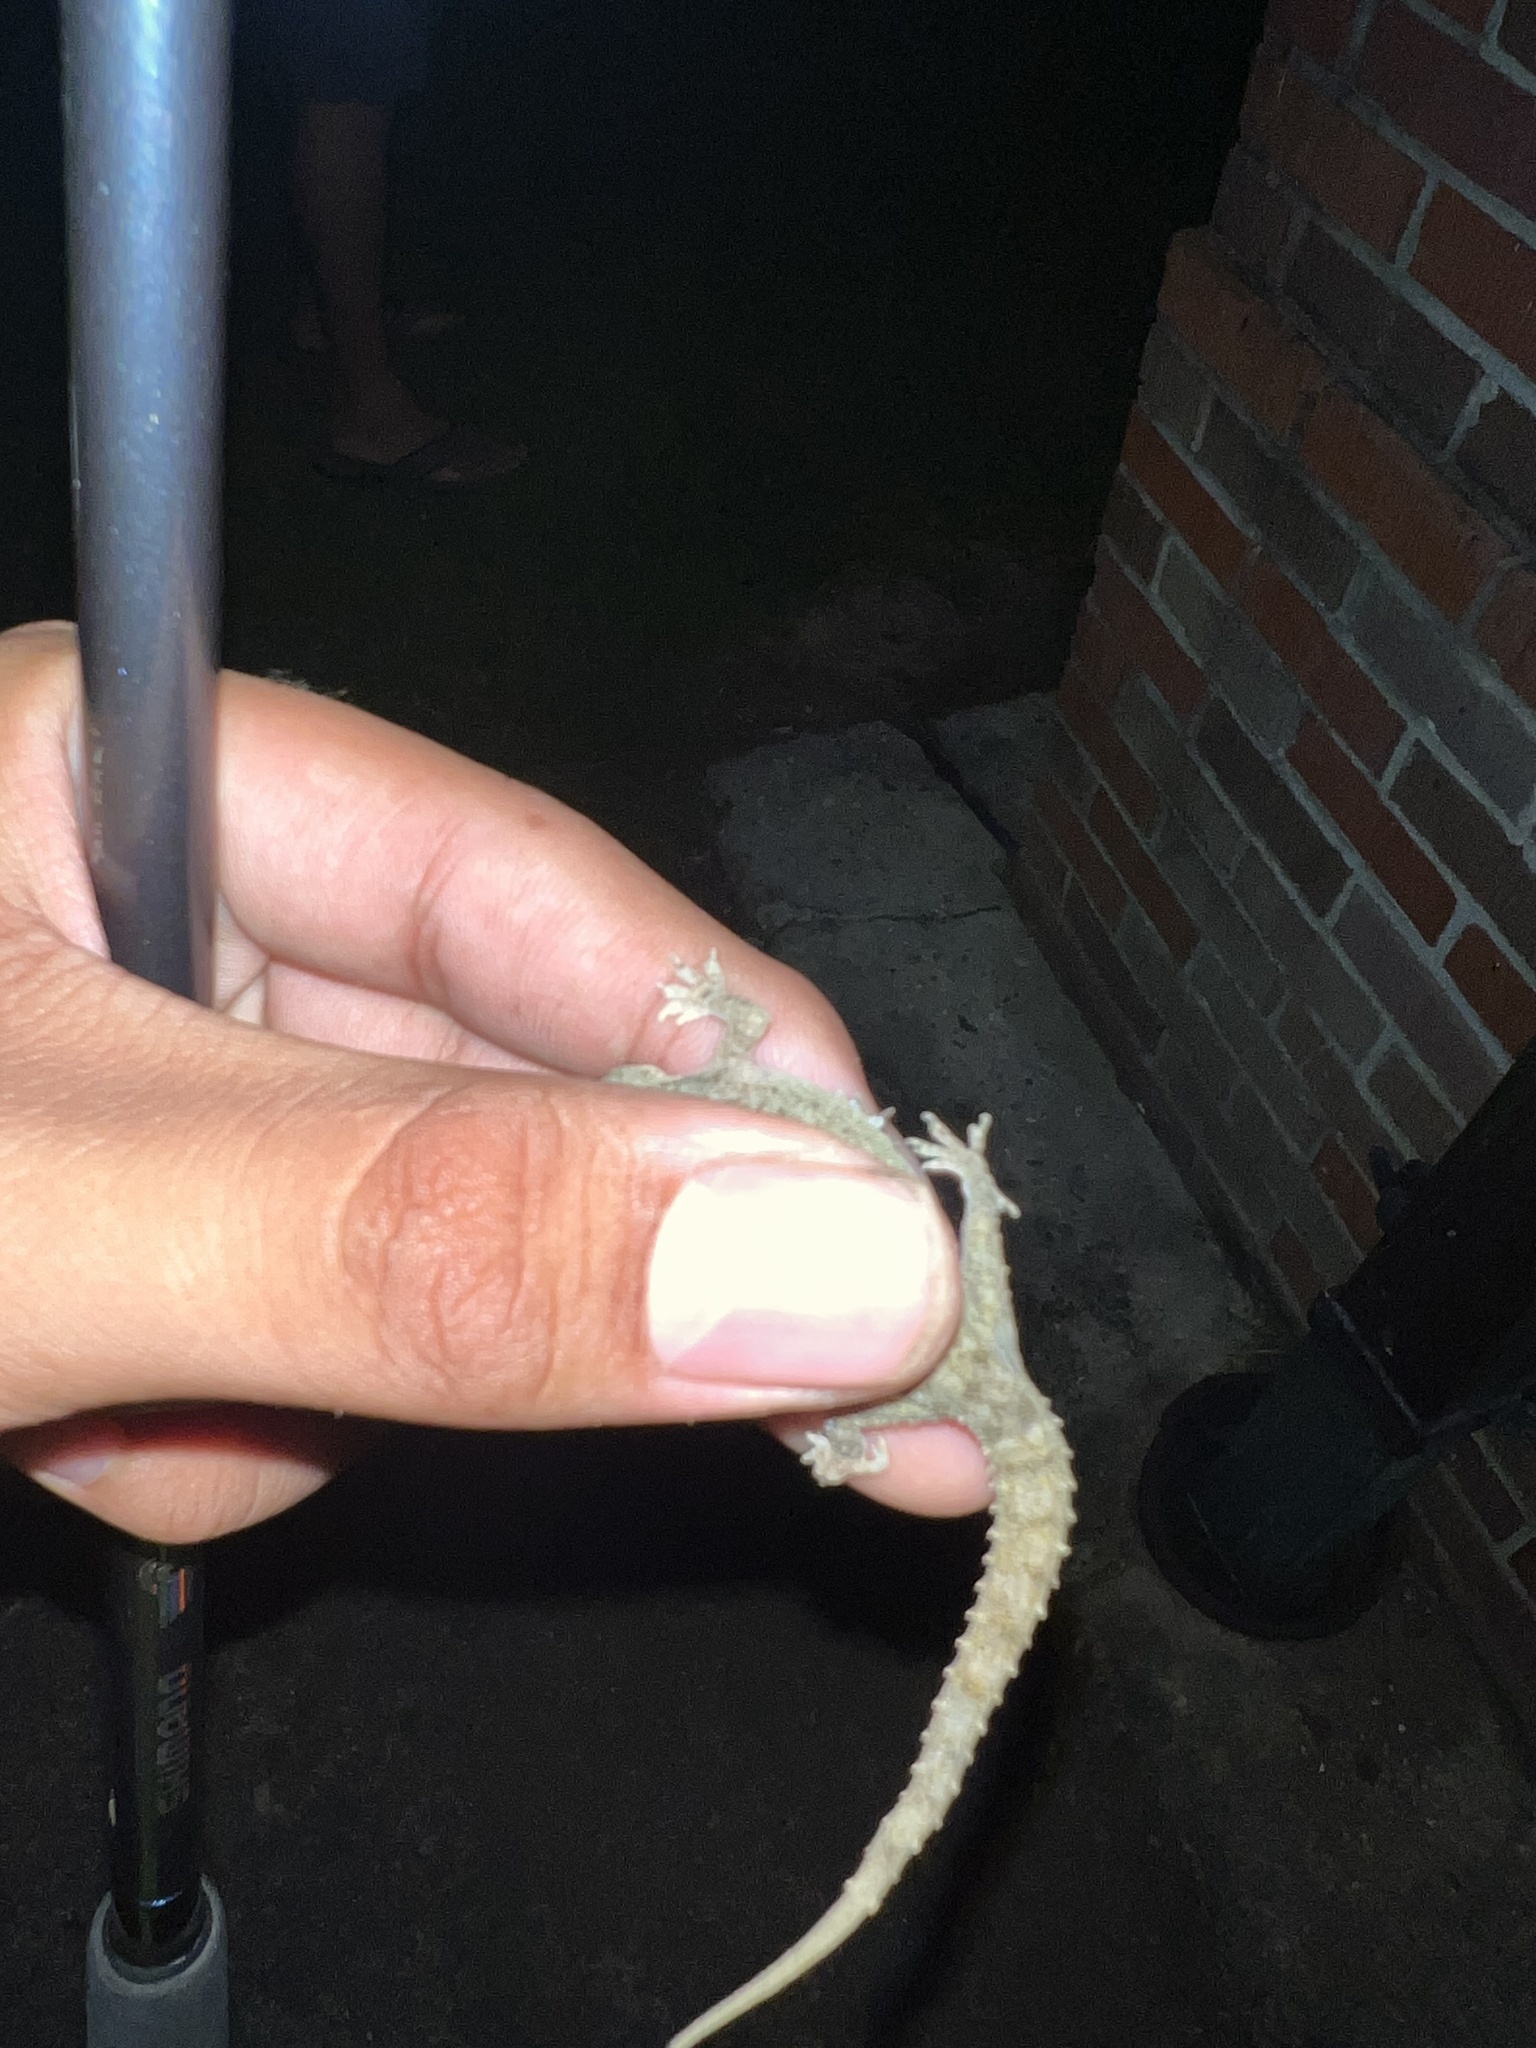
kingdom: Animalia
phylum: Chordata
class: Squamata
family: Gekkonidae
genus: Hemidactylus
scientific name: Hemidactylus parvimaculatus
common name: Spotted house gecko
